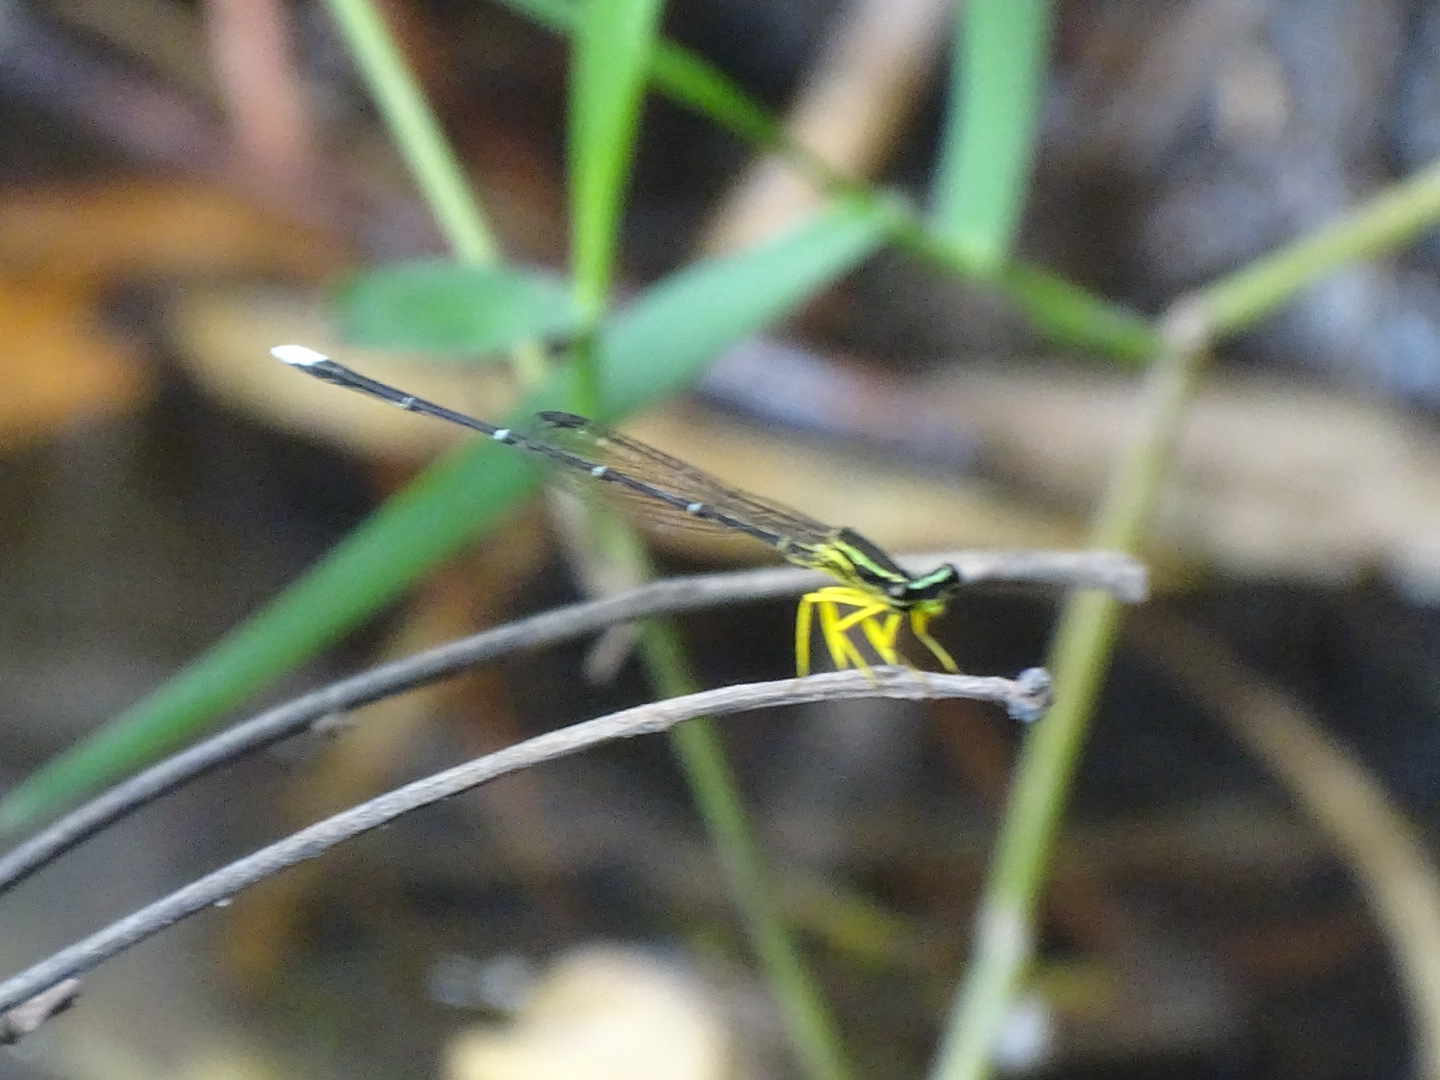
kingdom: Animalia
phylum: Arthropoda
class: Insecta
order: Odonata
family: Platycnemididae
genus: Copera
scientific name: Copera marginipes
